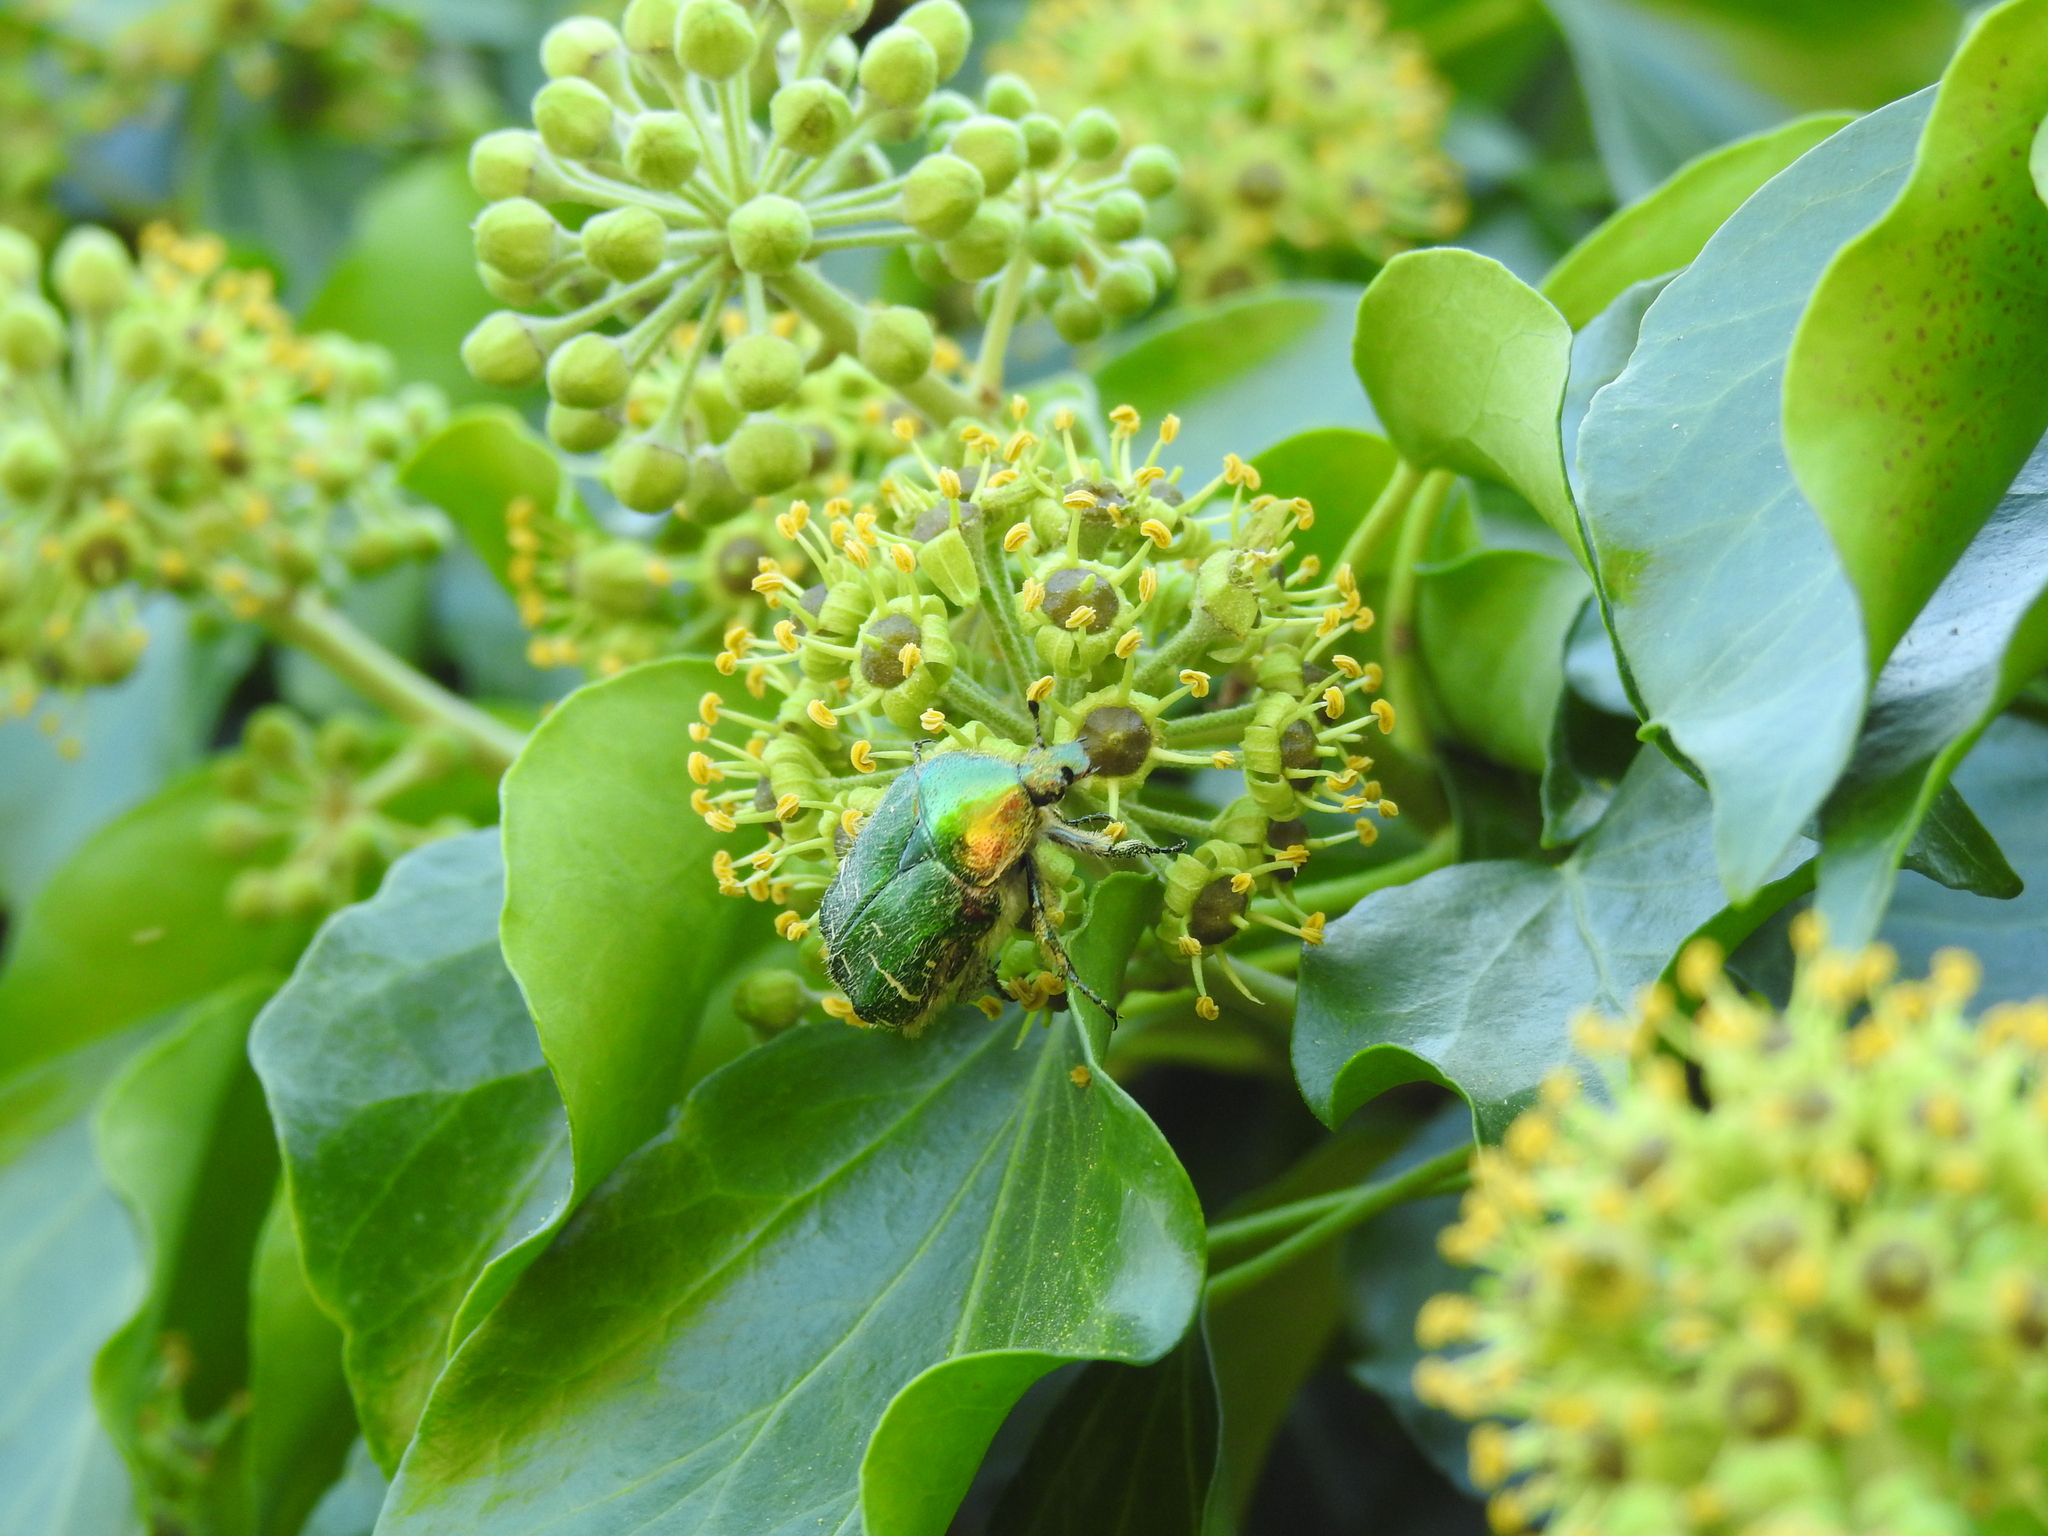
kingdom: Animalia
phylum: Arthropoda
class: Insecta
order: Coleoptera
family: Scarabaeidae
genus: Cetonia
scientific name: Cetonia aurata
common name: Rose chafer
